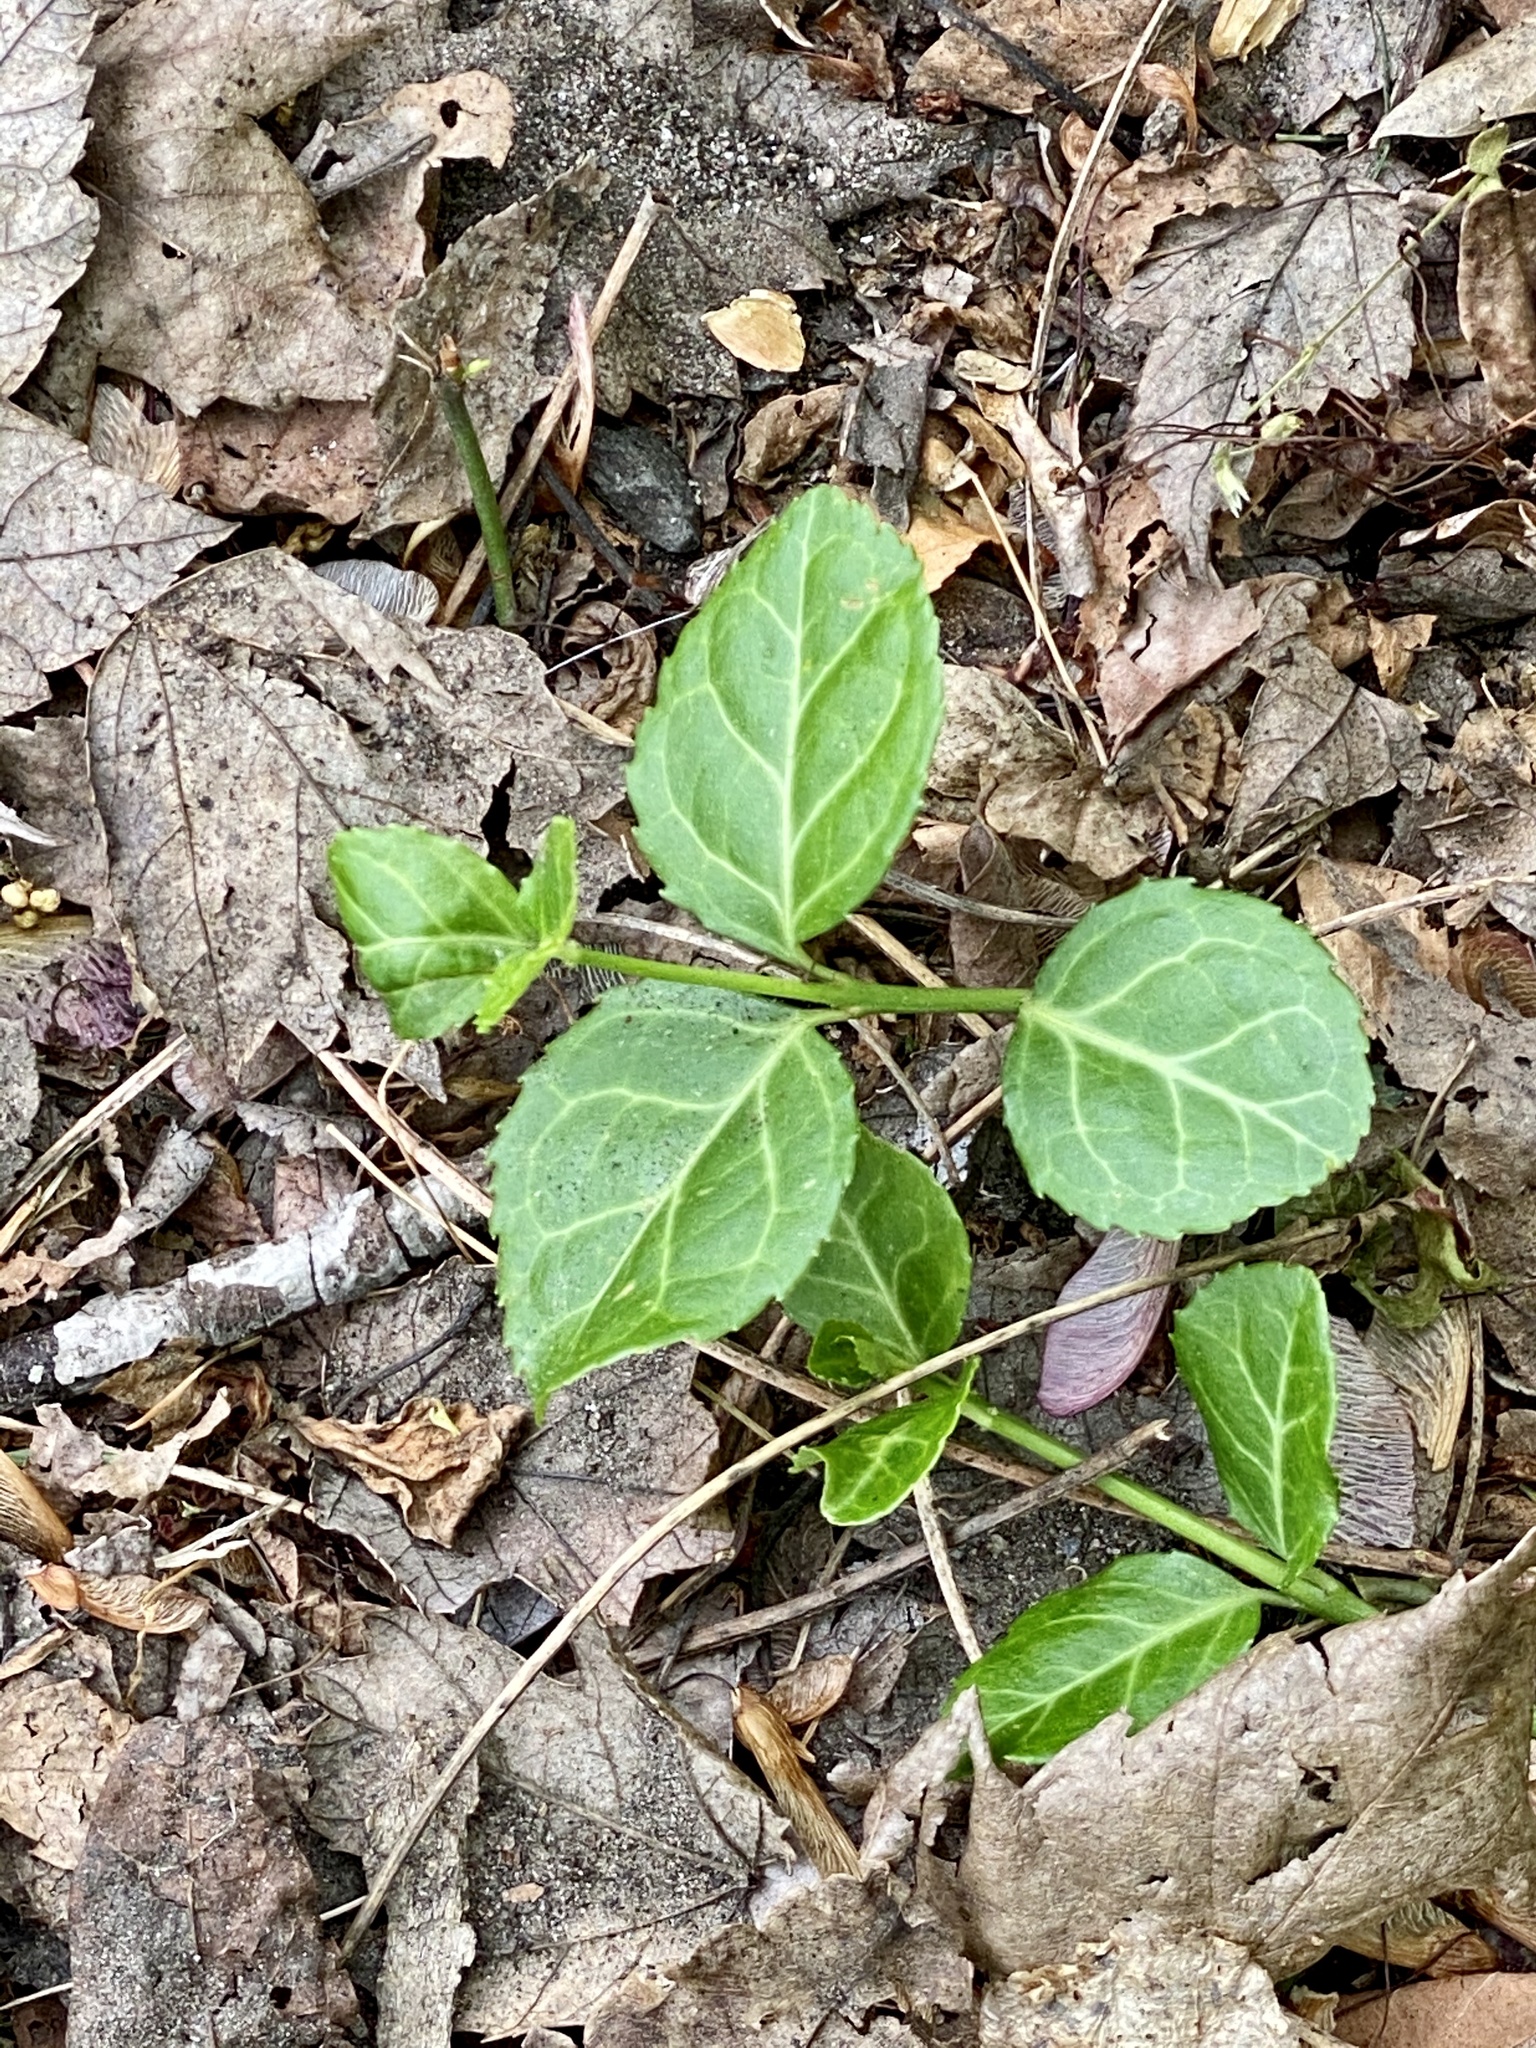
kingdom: Plantae
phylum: Tracheophyta
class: Magnoliopsida
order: Celastrales
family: Celastraceae
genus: Euonymus
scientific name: Euonymus fortunei
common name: Climbing euonymus
